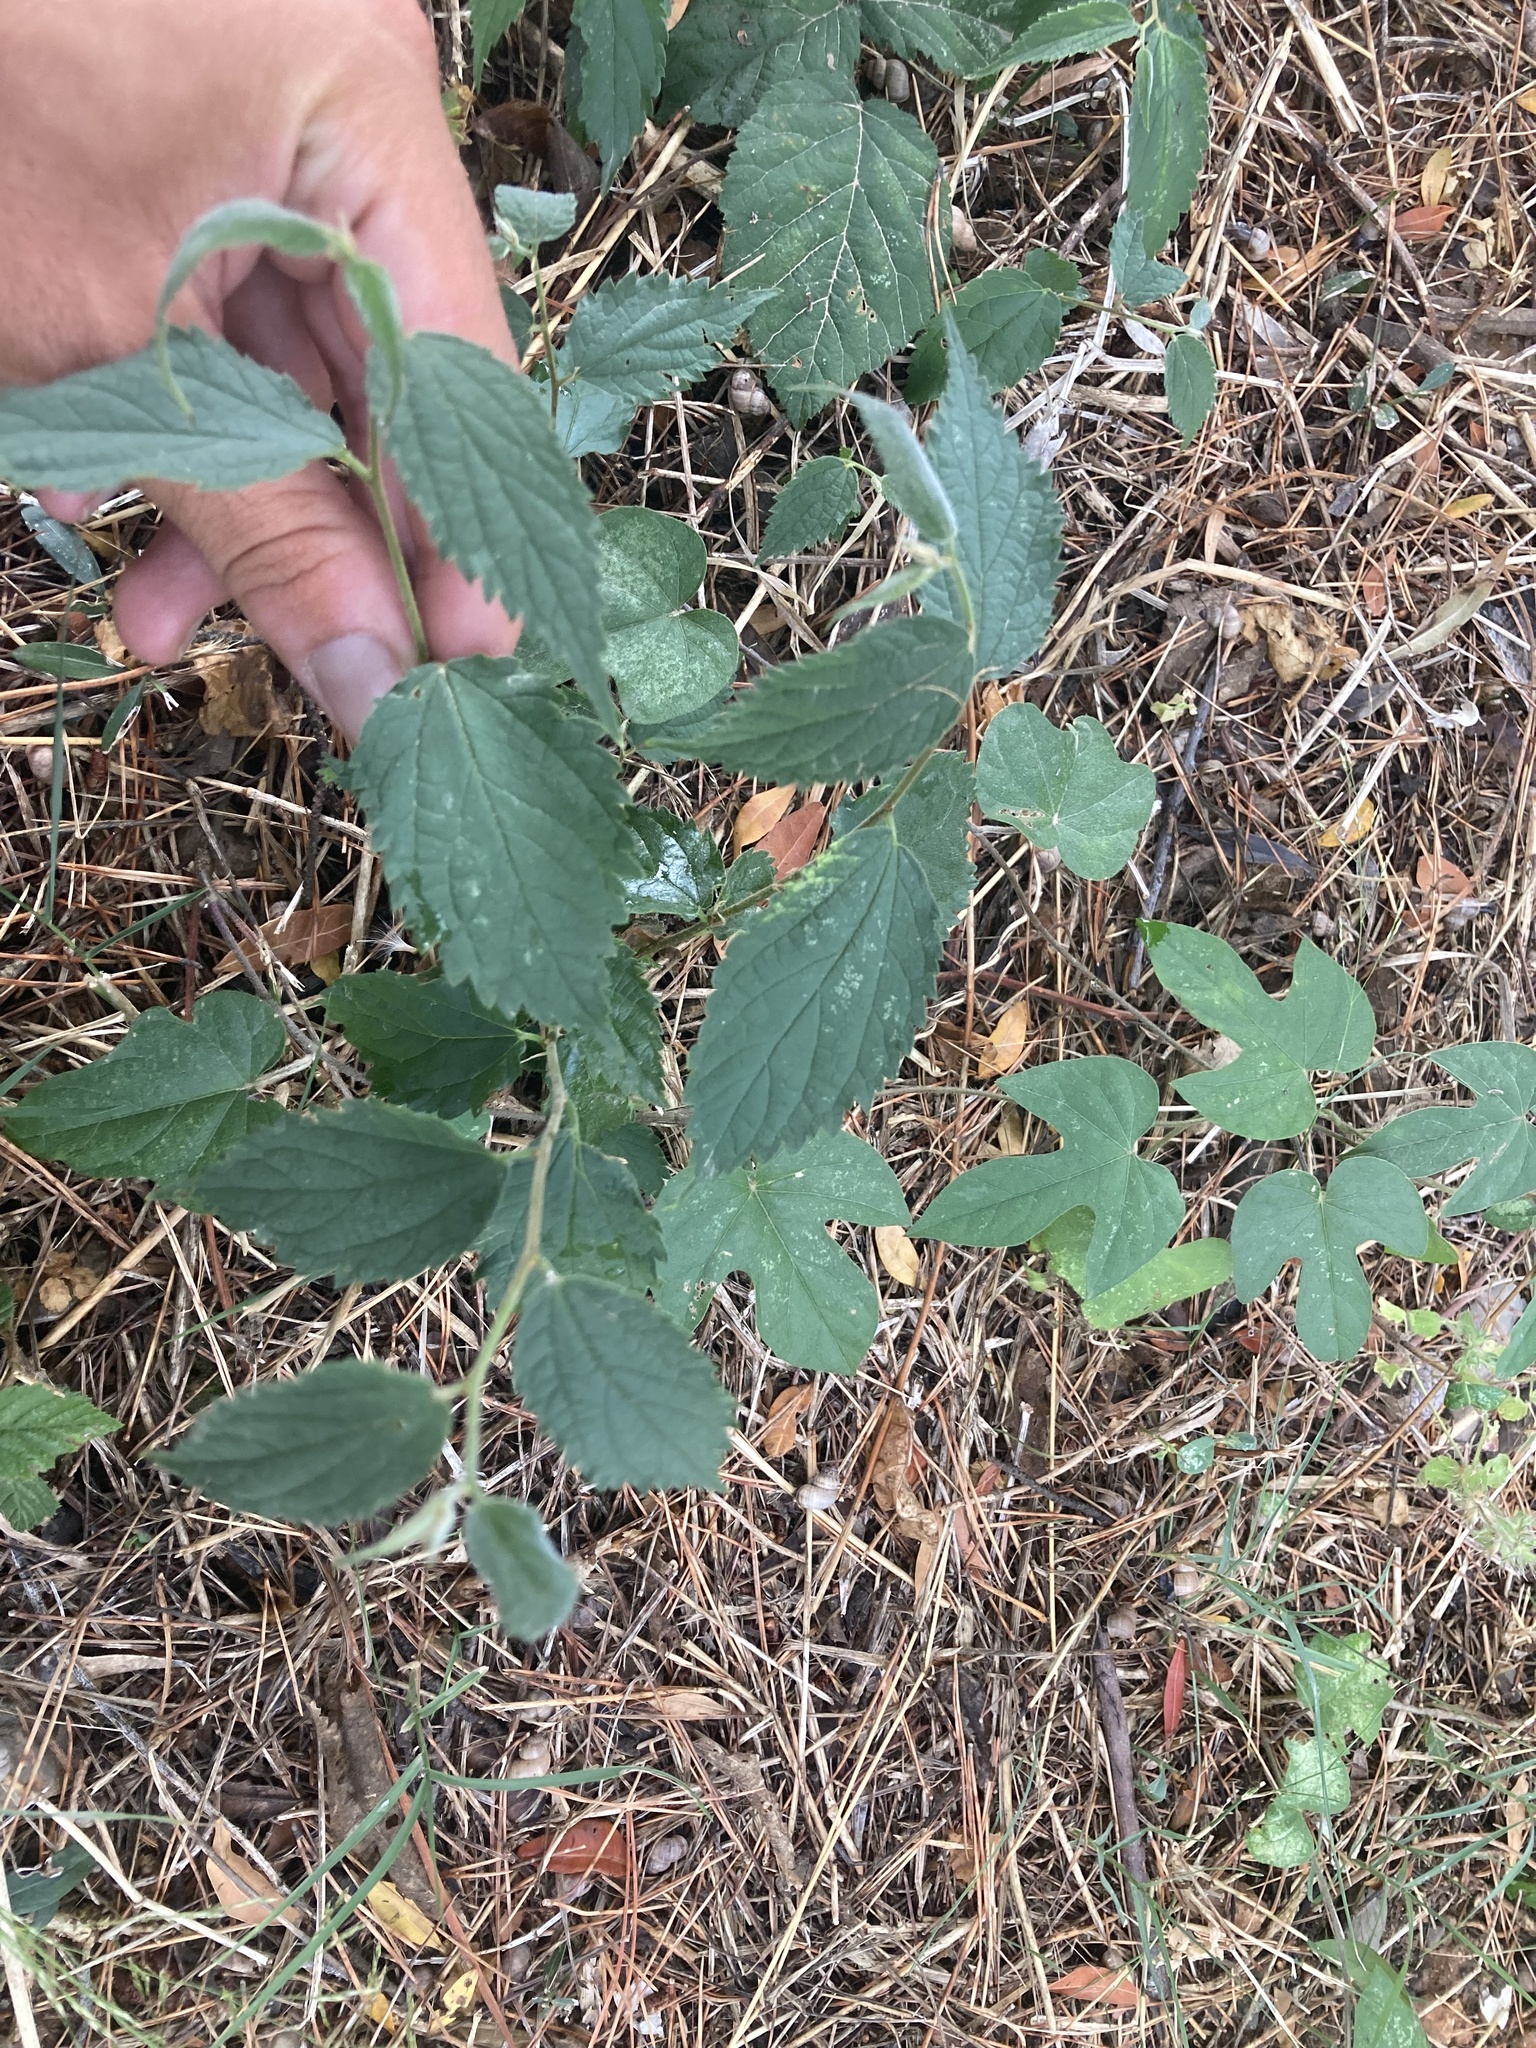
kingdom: Plantae
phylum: Tracheophyta
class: Magnoliopsida
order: Rosales
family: Cannabaceae
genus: Celtis
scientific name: Celtis australis
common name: European hackberry
